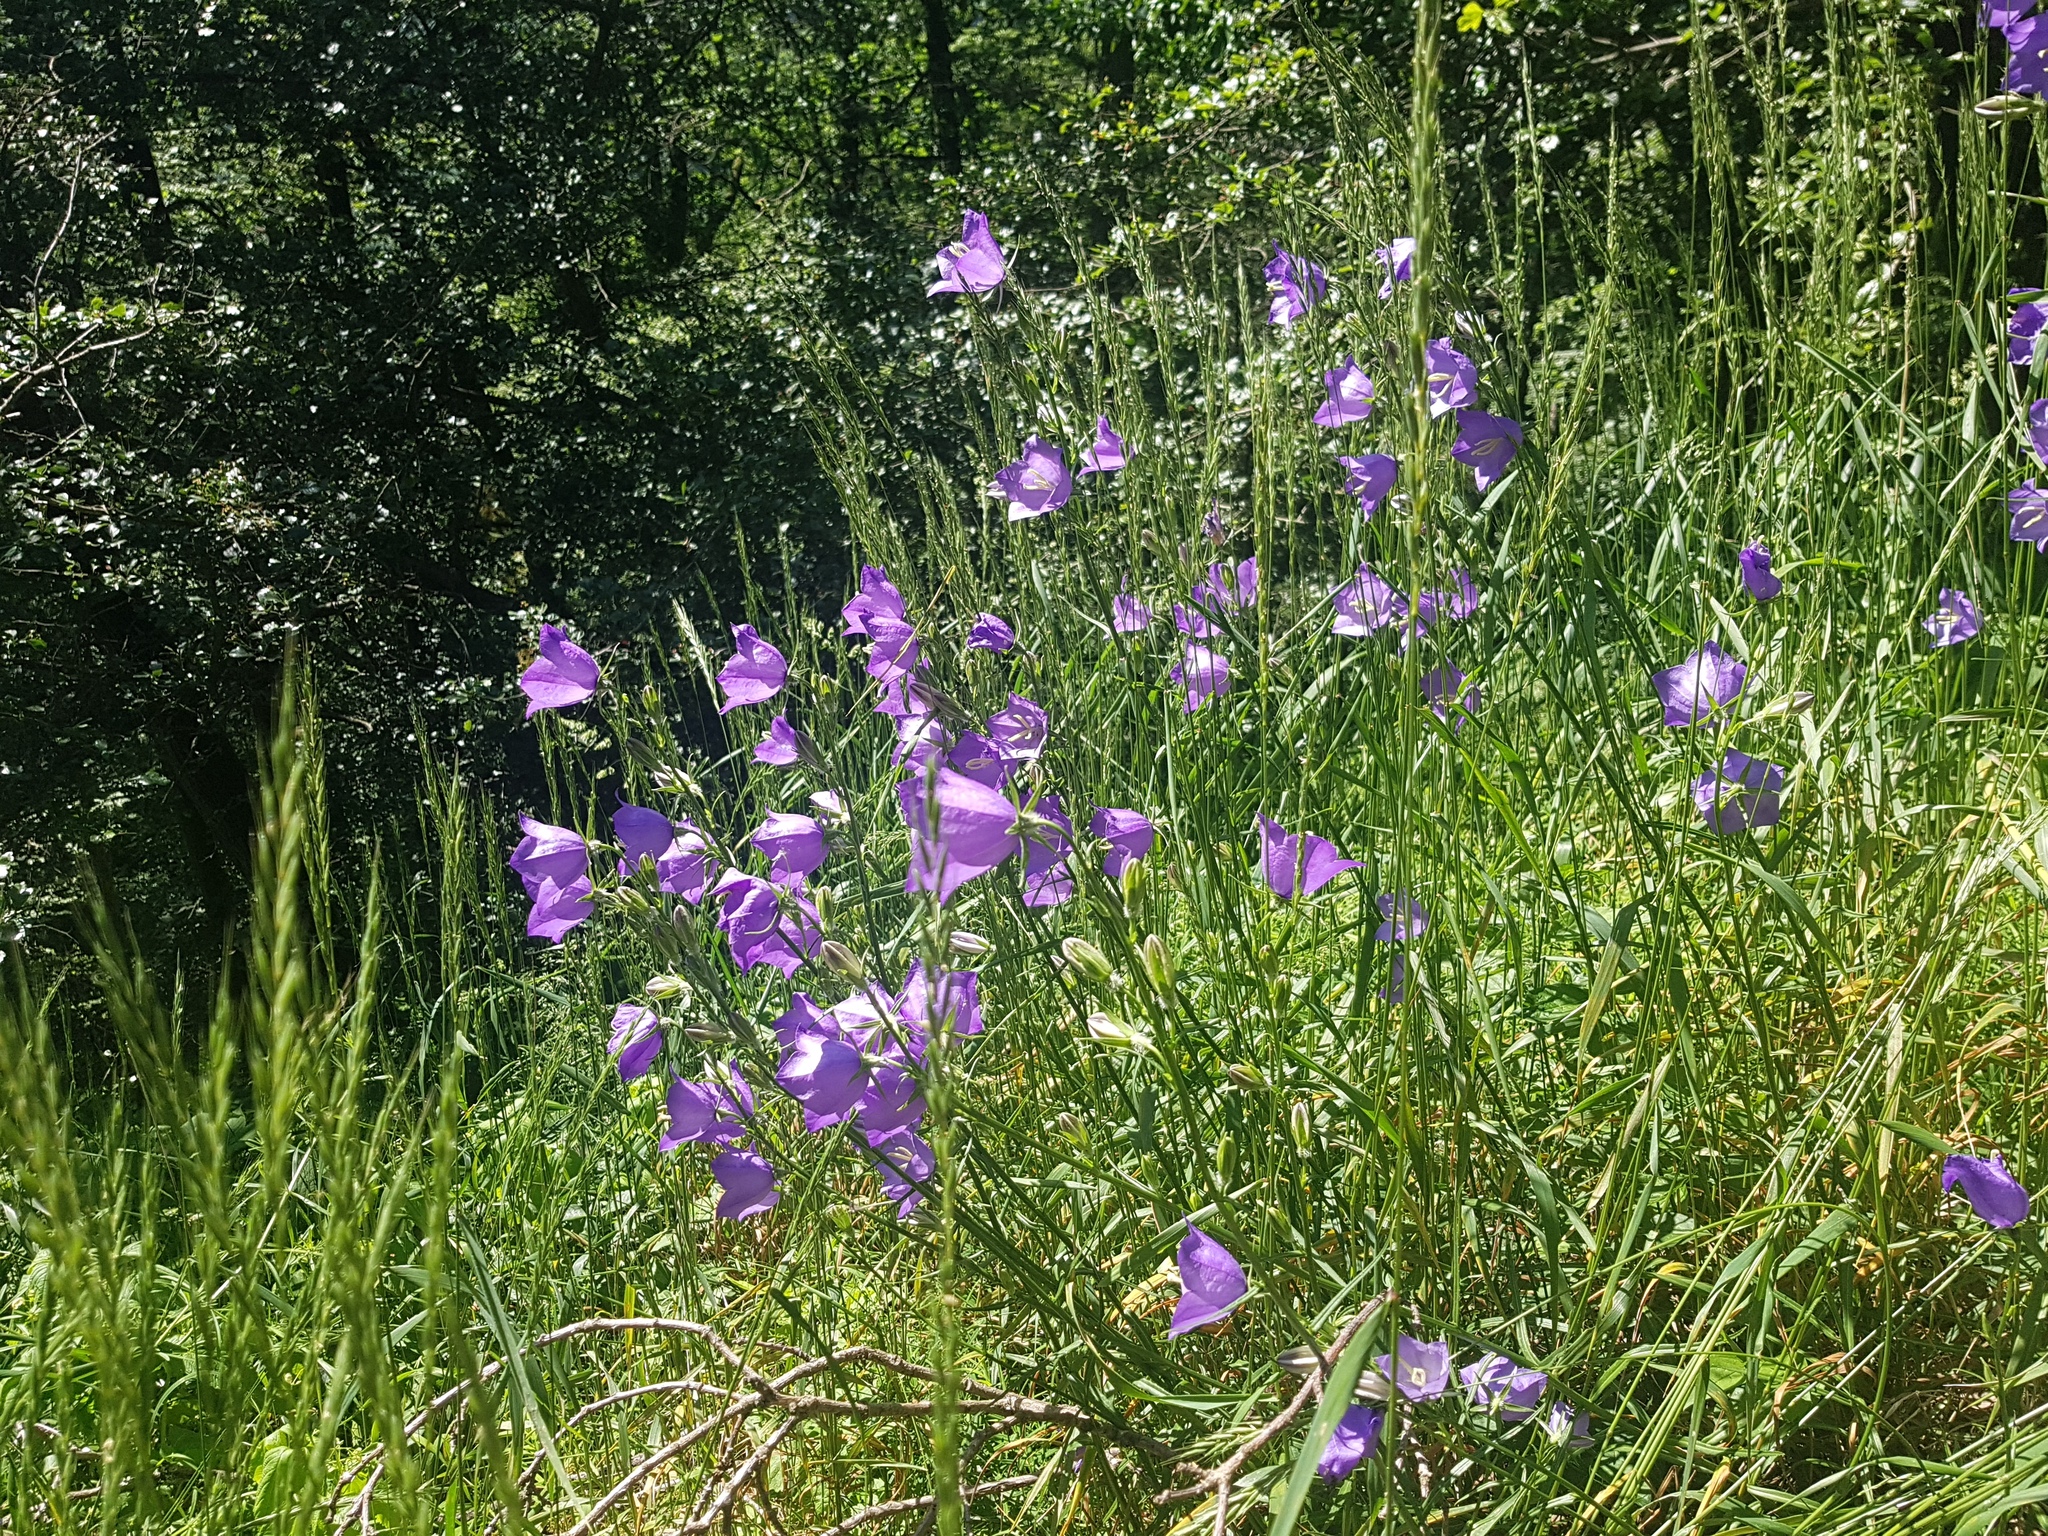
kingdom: Plantae
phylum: Tracheophyta
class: Magnoliopsida
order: Asterales
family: Campanulaceae
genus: Campanula
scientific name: Campanula persicifolia
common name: Peach-leaved bellflower
